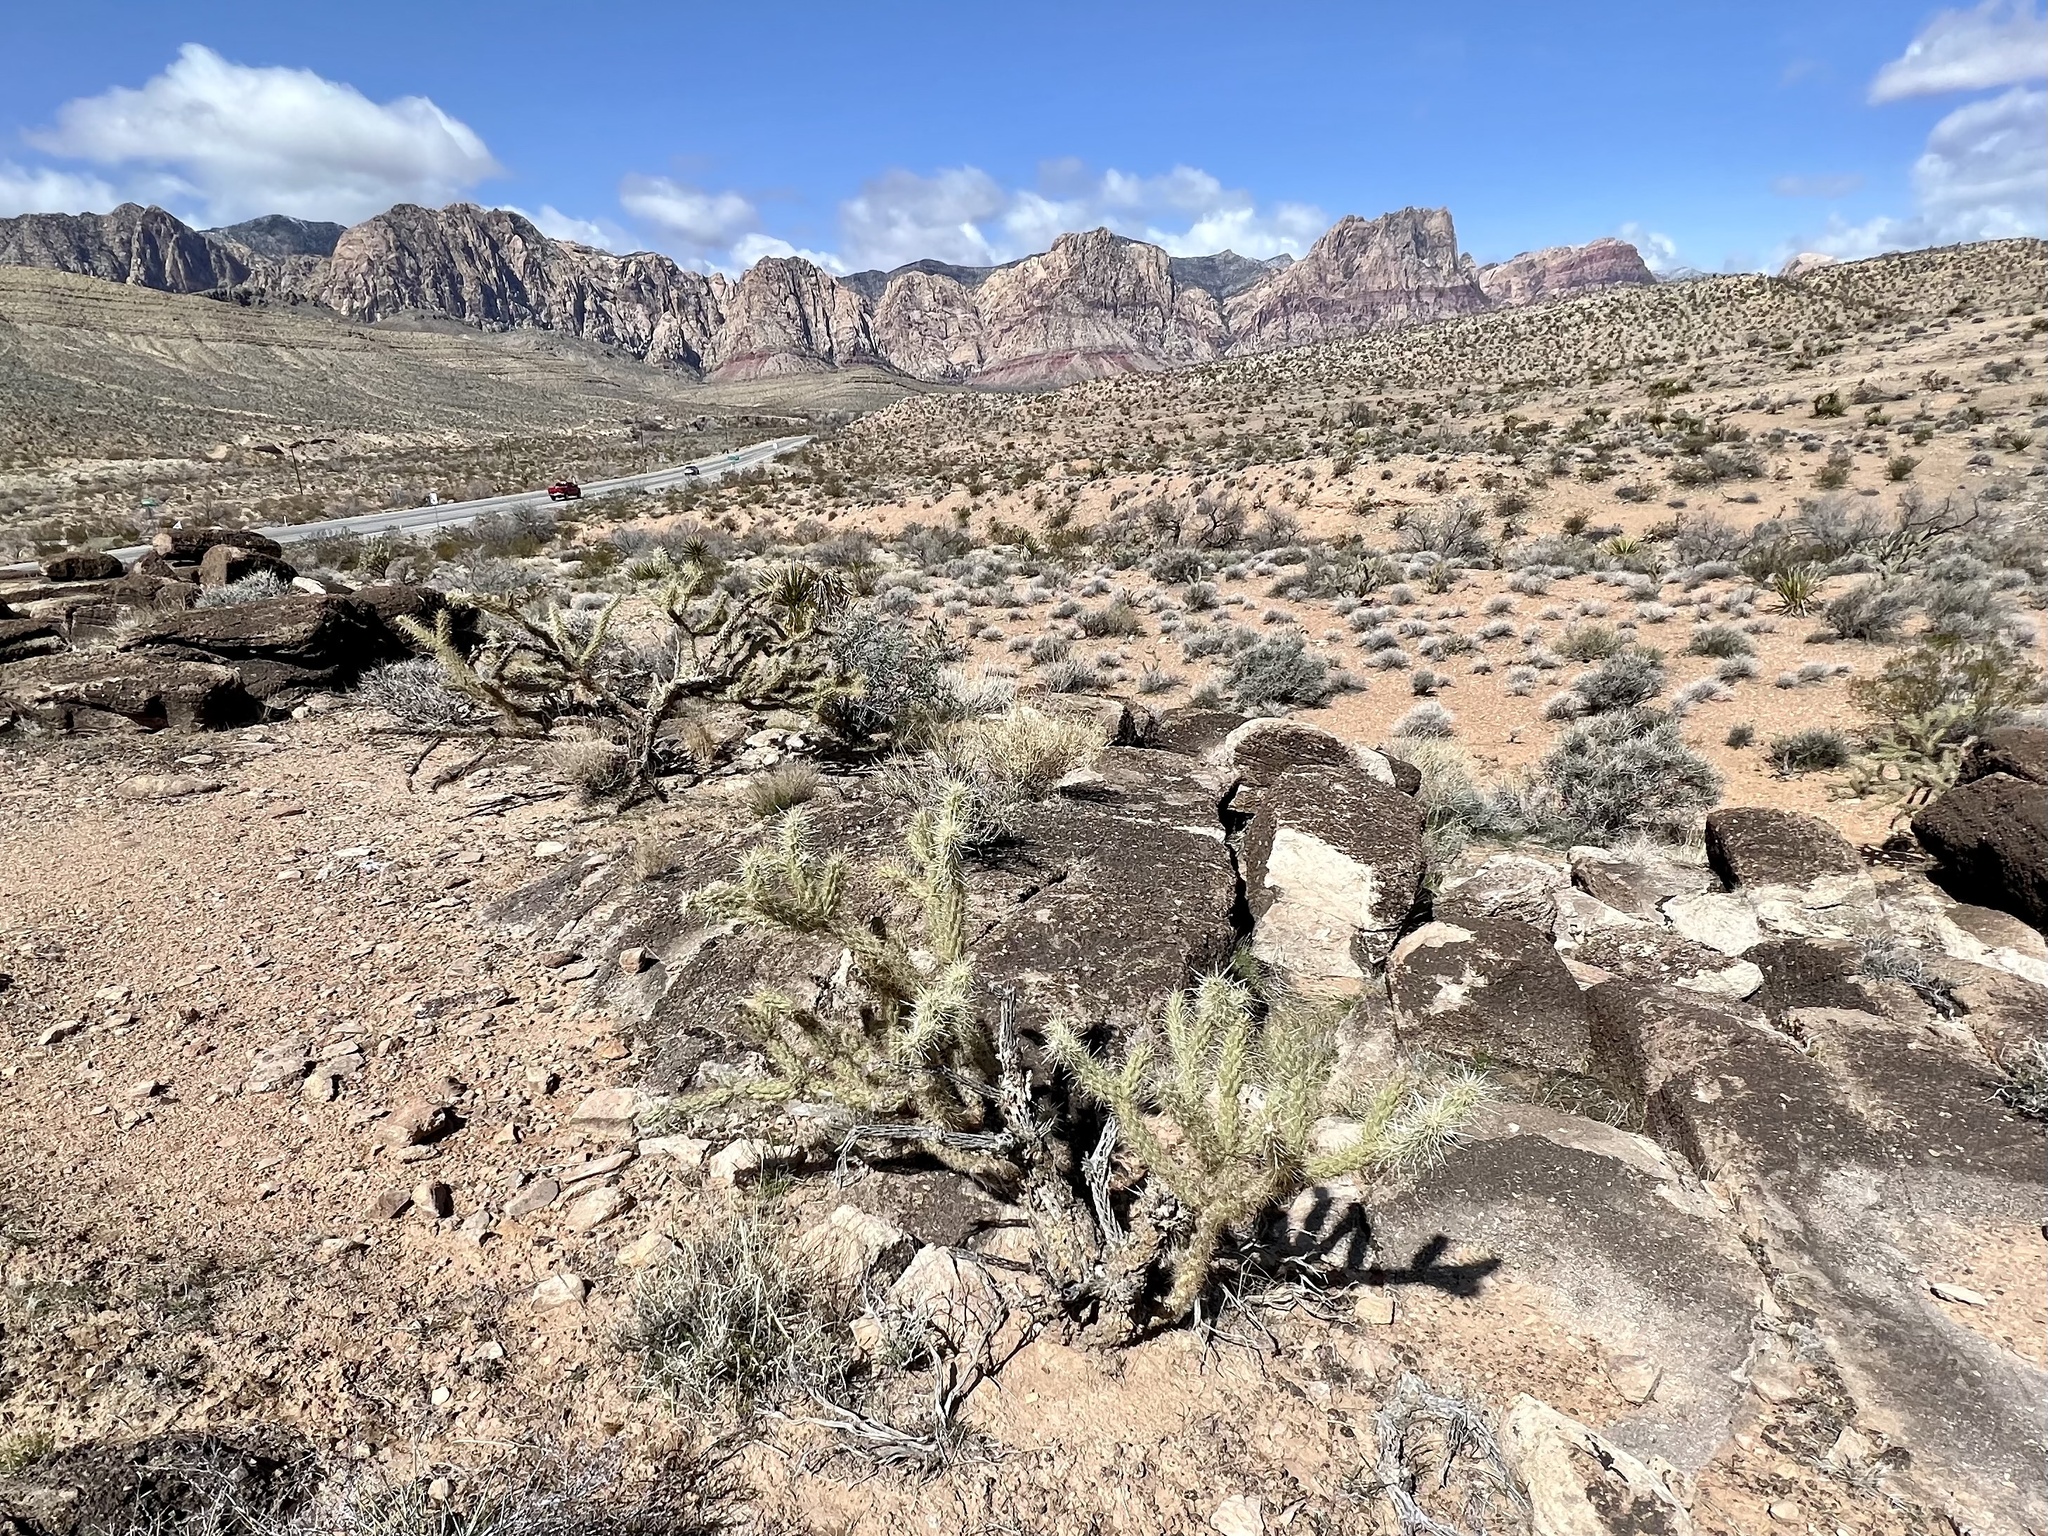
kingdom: Plantae
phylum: Tracheophyta
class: Magnoliopsida
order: Caryophyllales
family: Cactaceae
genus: Cylindropuntia
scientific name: Cylindropuntia acanthocarpa
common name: Buckhorn cholla
